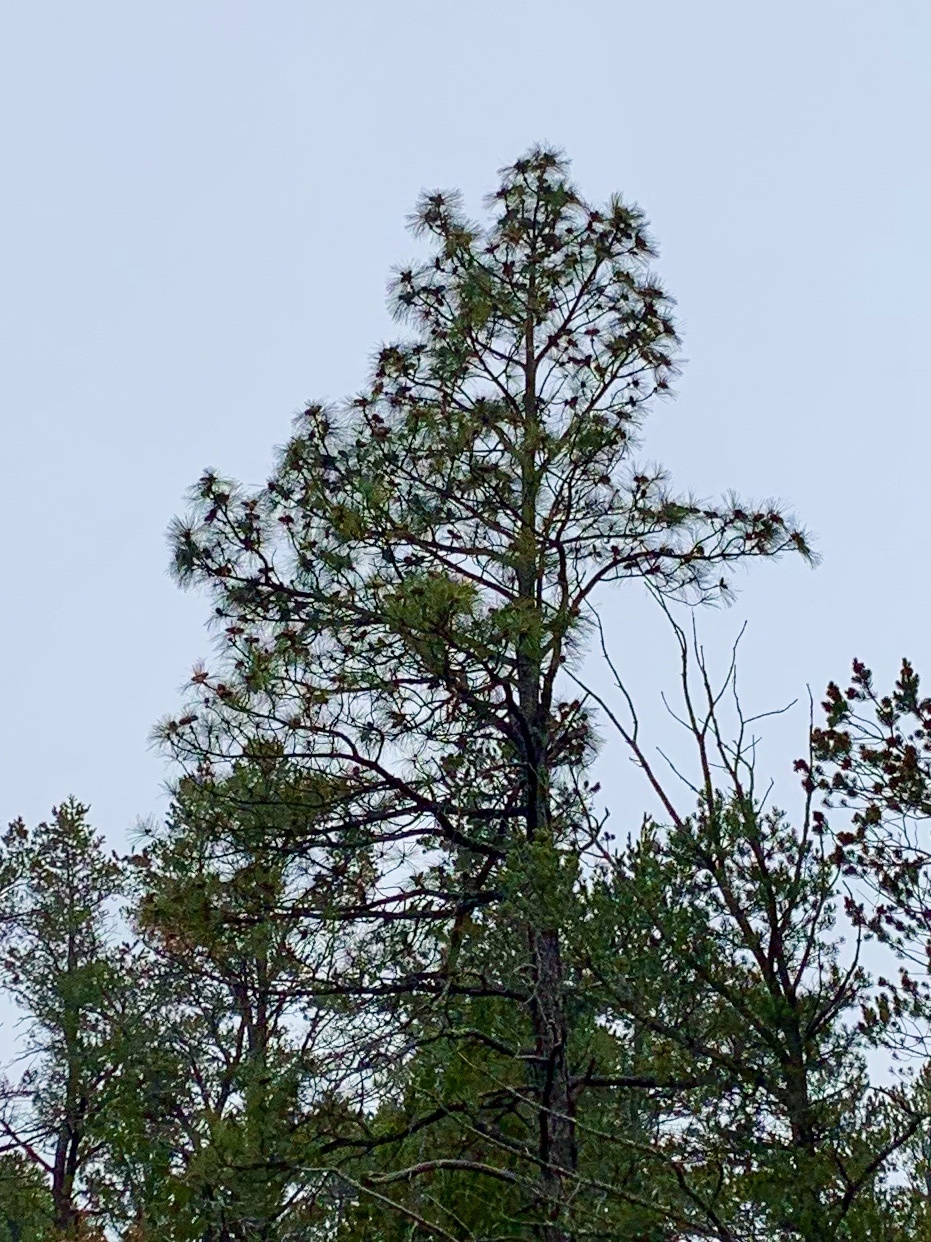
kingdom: Plantae
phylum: Tracheophyta
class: Pinopsida
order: Pinales
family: Pinaceae
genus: Pinus
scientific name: Pinus ponderosa
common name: Western yellow-pine
